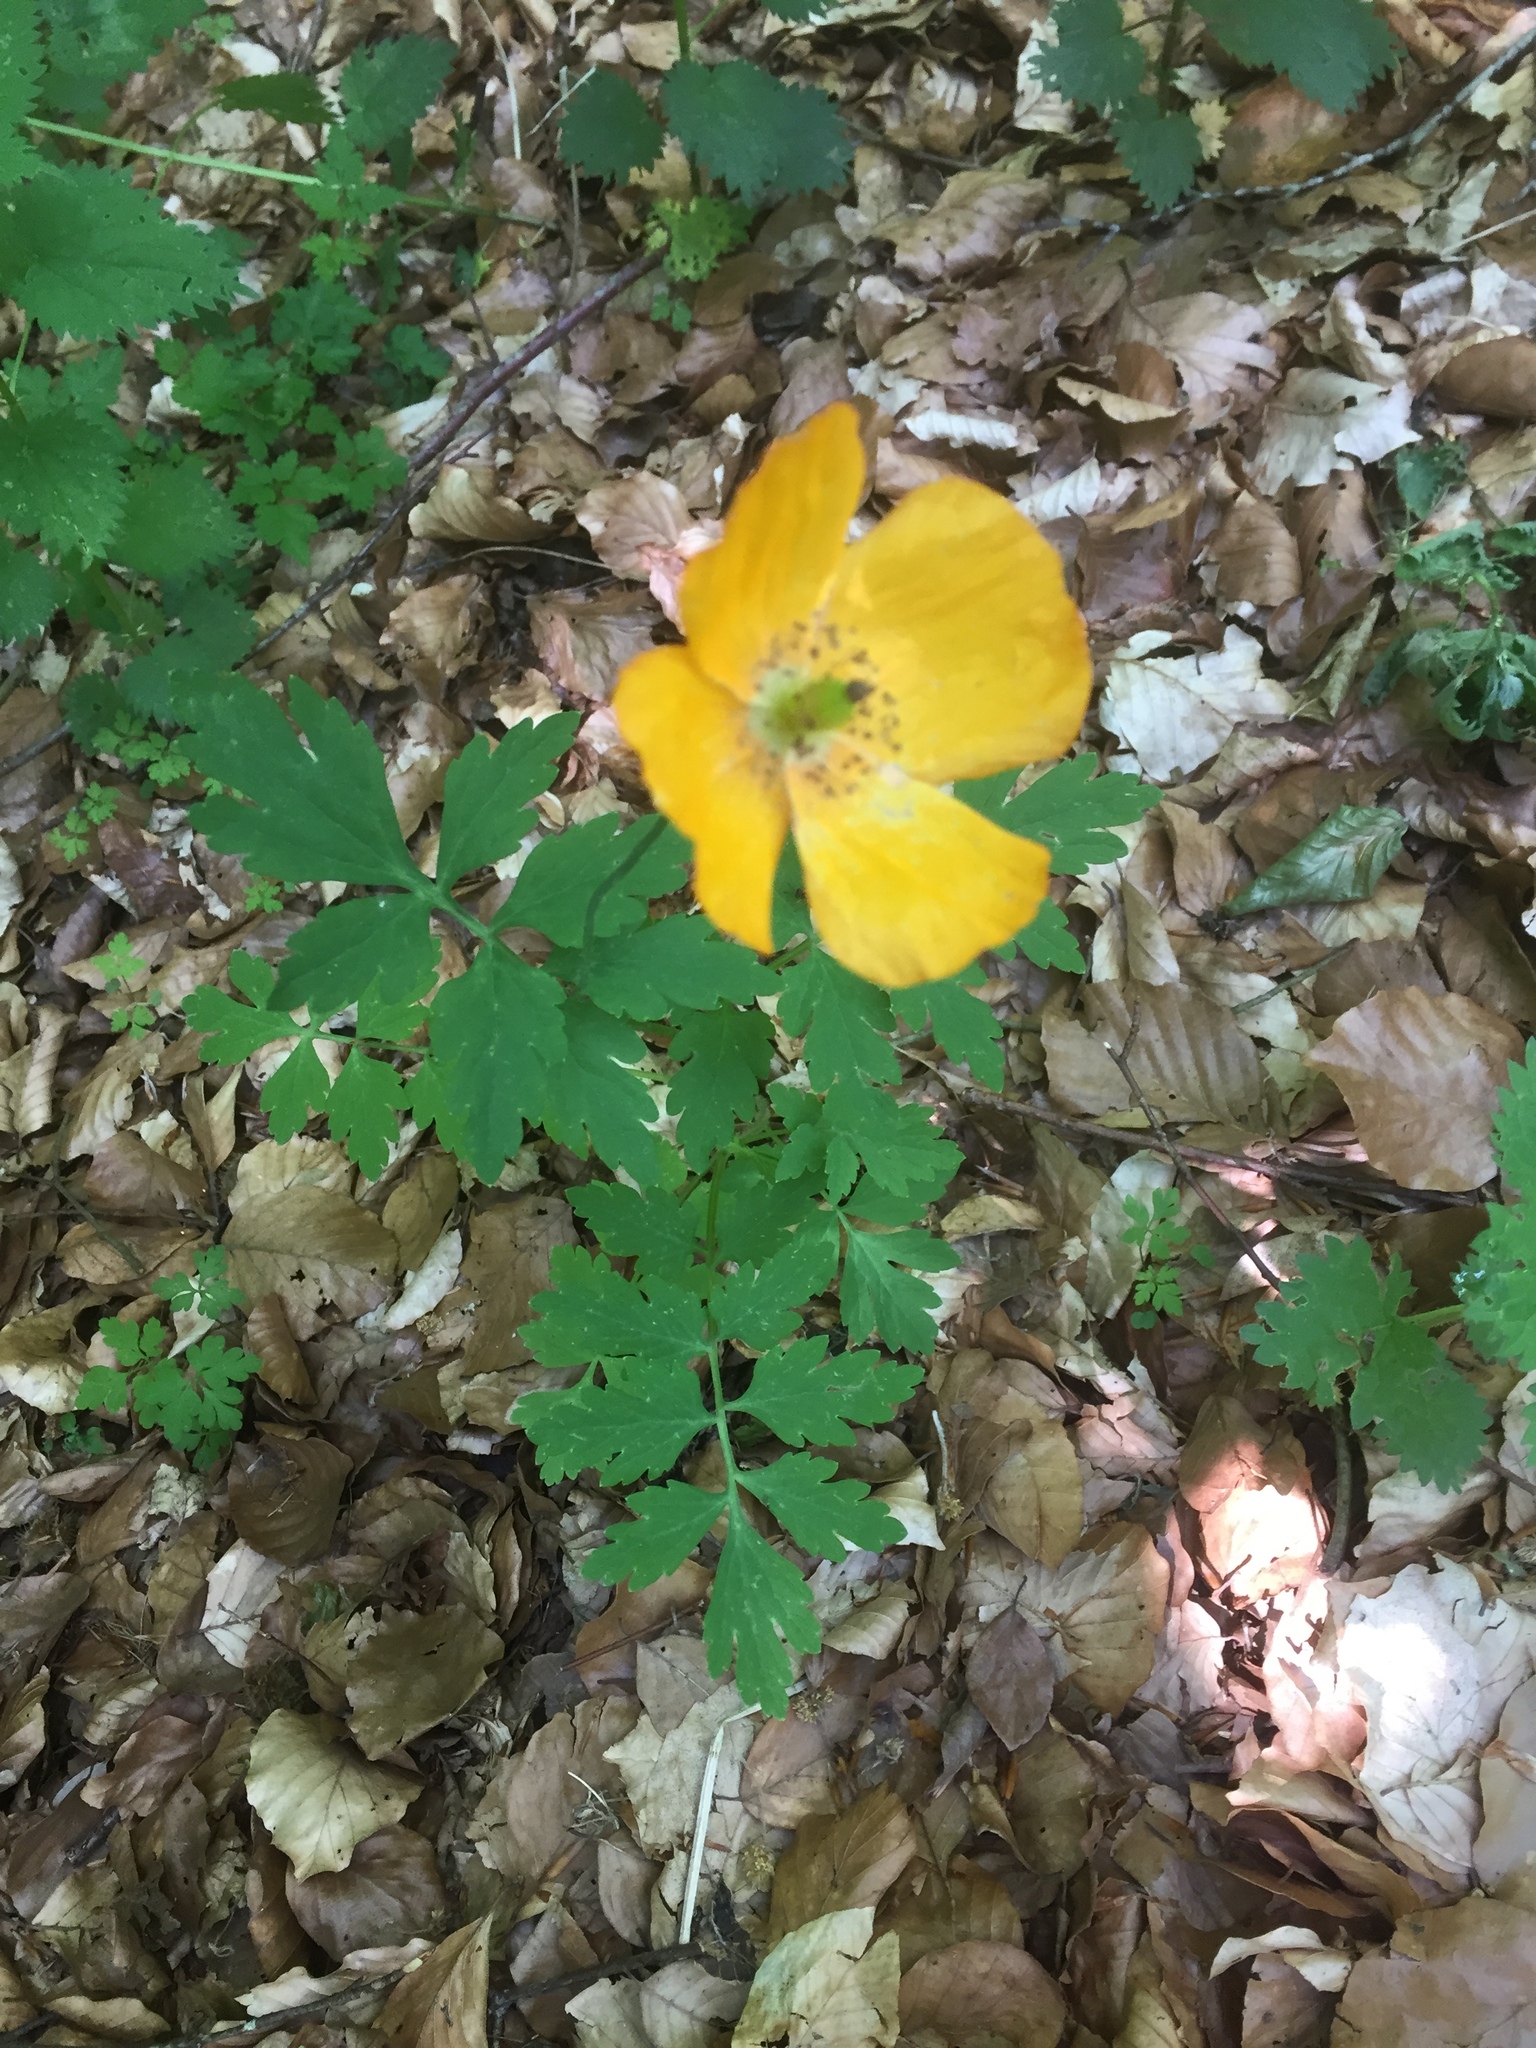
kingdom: Plantae
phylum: Tracheophyta
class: Magnoliopsida
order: Ranunculales
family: Papaveraceae
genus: Papaver
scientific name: Papaver cambricum
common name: Poppy
